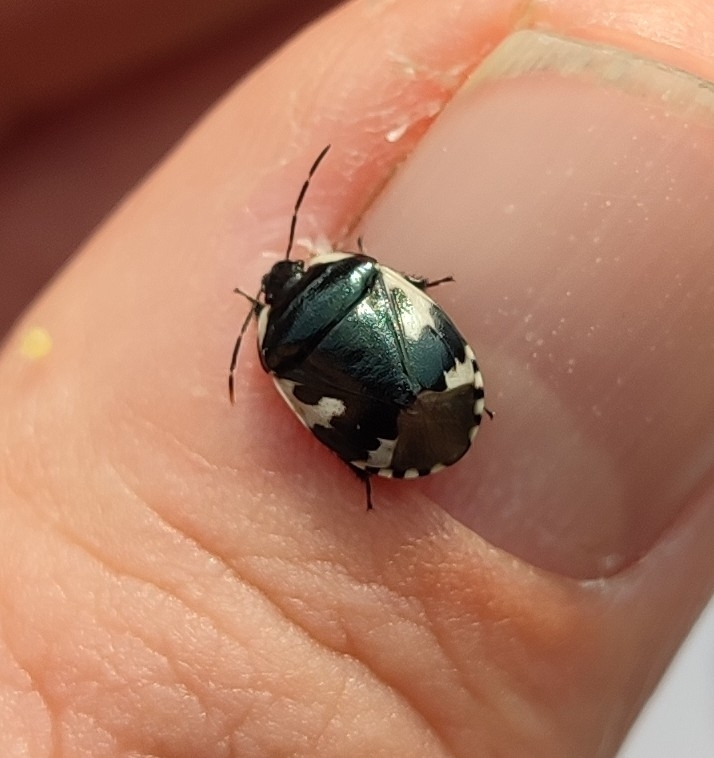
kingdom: Animalia
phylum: Arthropoda
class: Insecta
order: Hemiptera
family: Cydnidae
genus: Tritomegas
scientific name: Tritomegas bicolor
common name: Pied shieldbug
